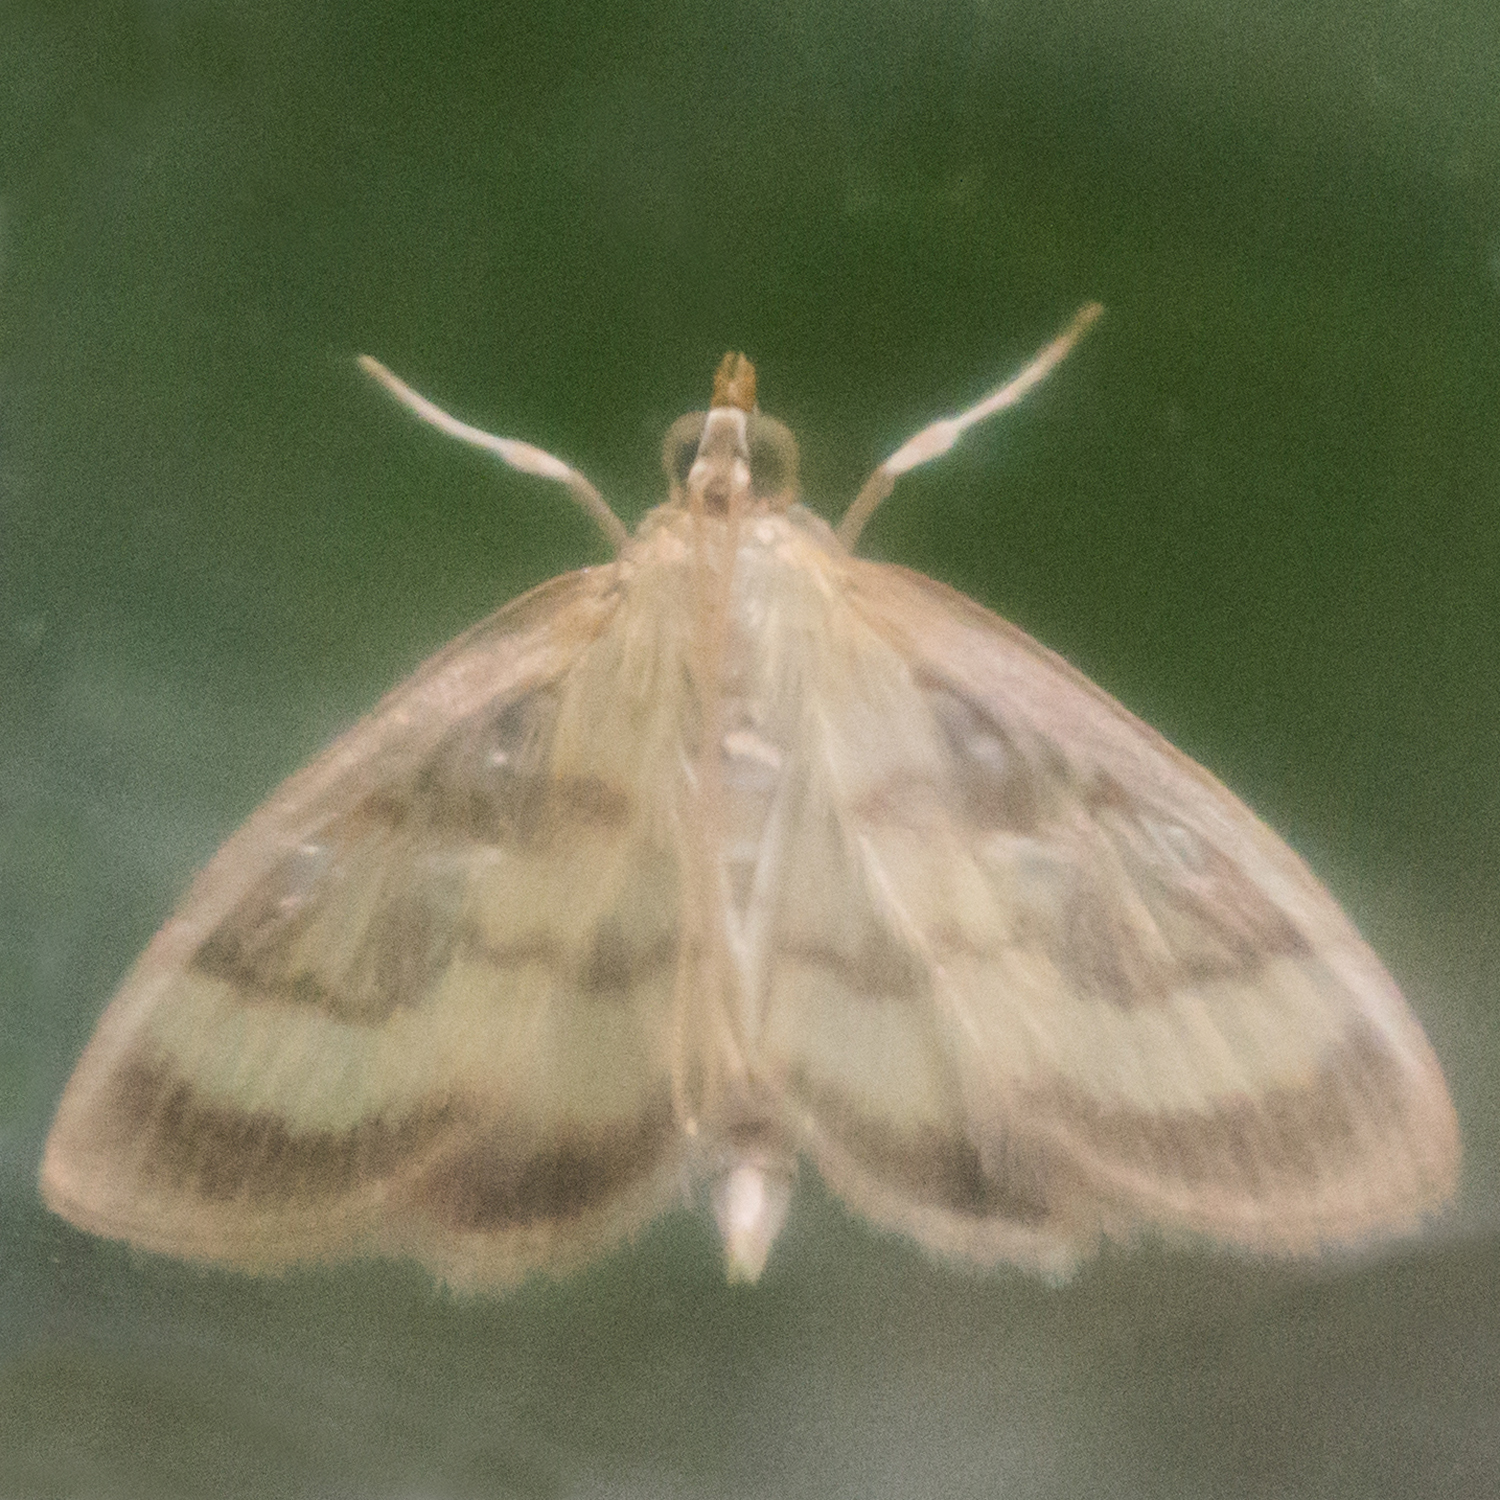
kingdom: Animalia
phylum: Arthropoda
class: Insecta
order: Lepidoptera
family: Crambidae
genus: Crocidophora
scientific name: Crocidophora tuberculalis
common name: Pale-winged crocidiphora moth
